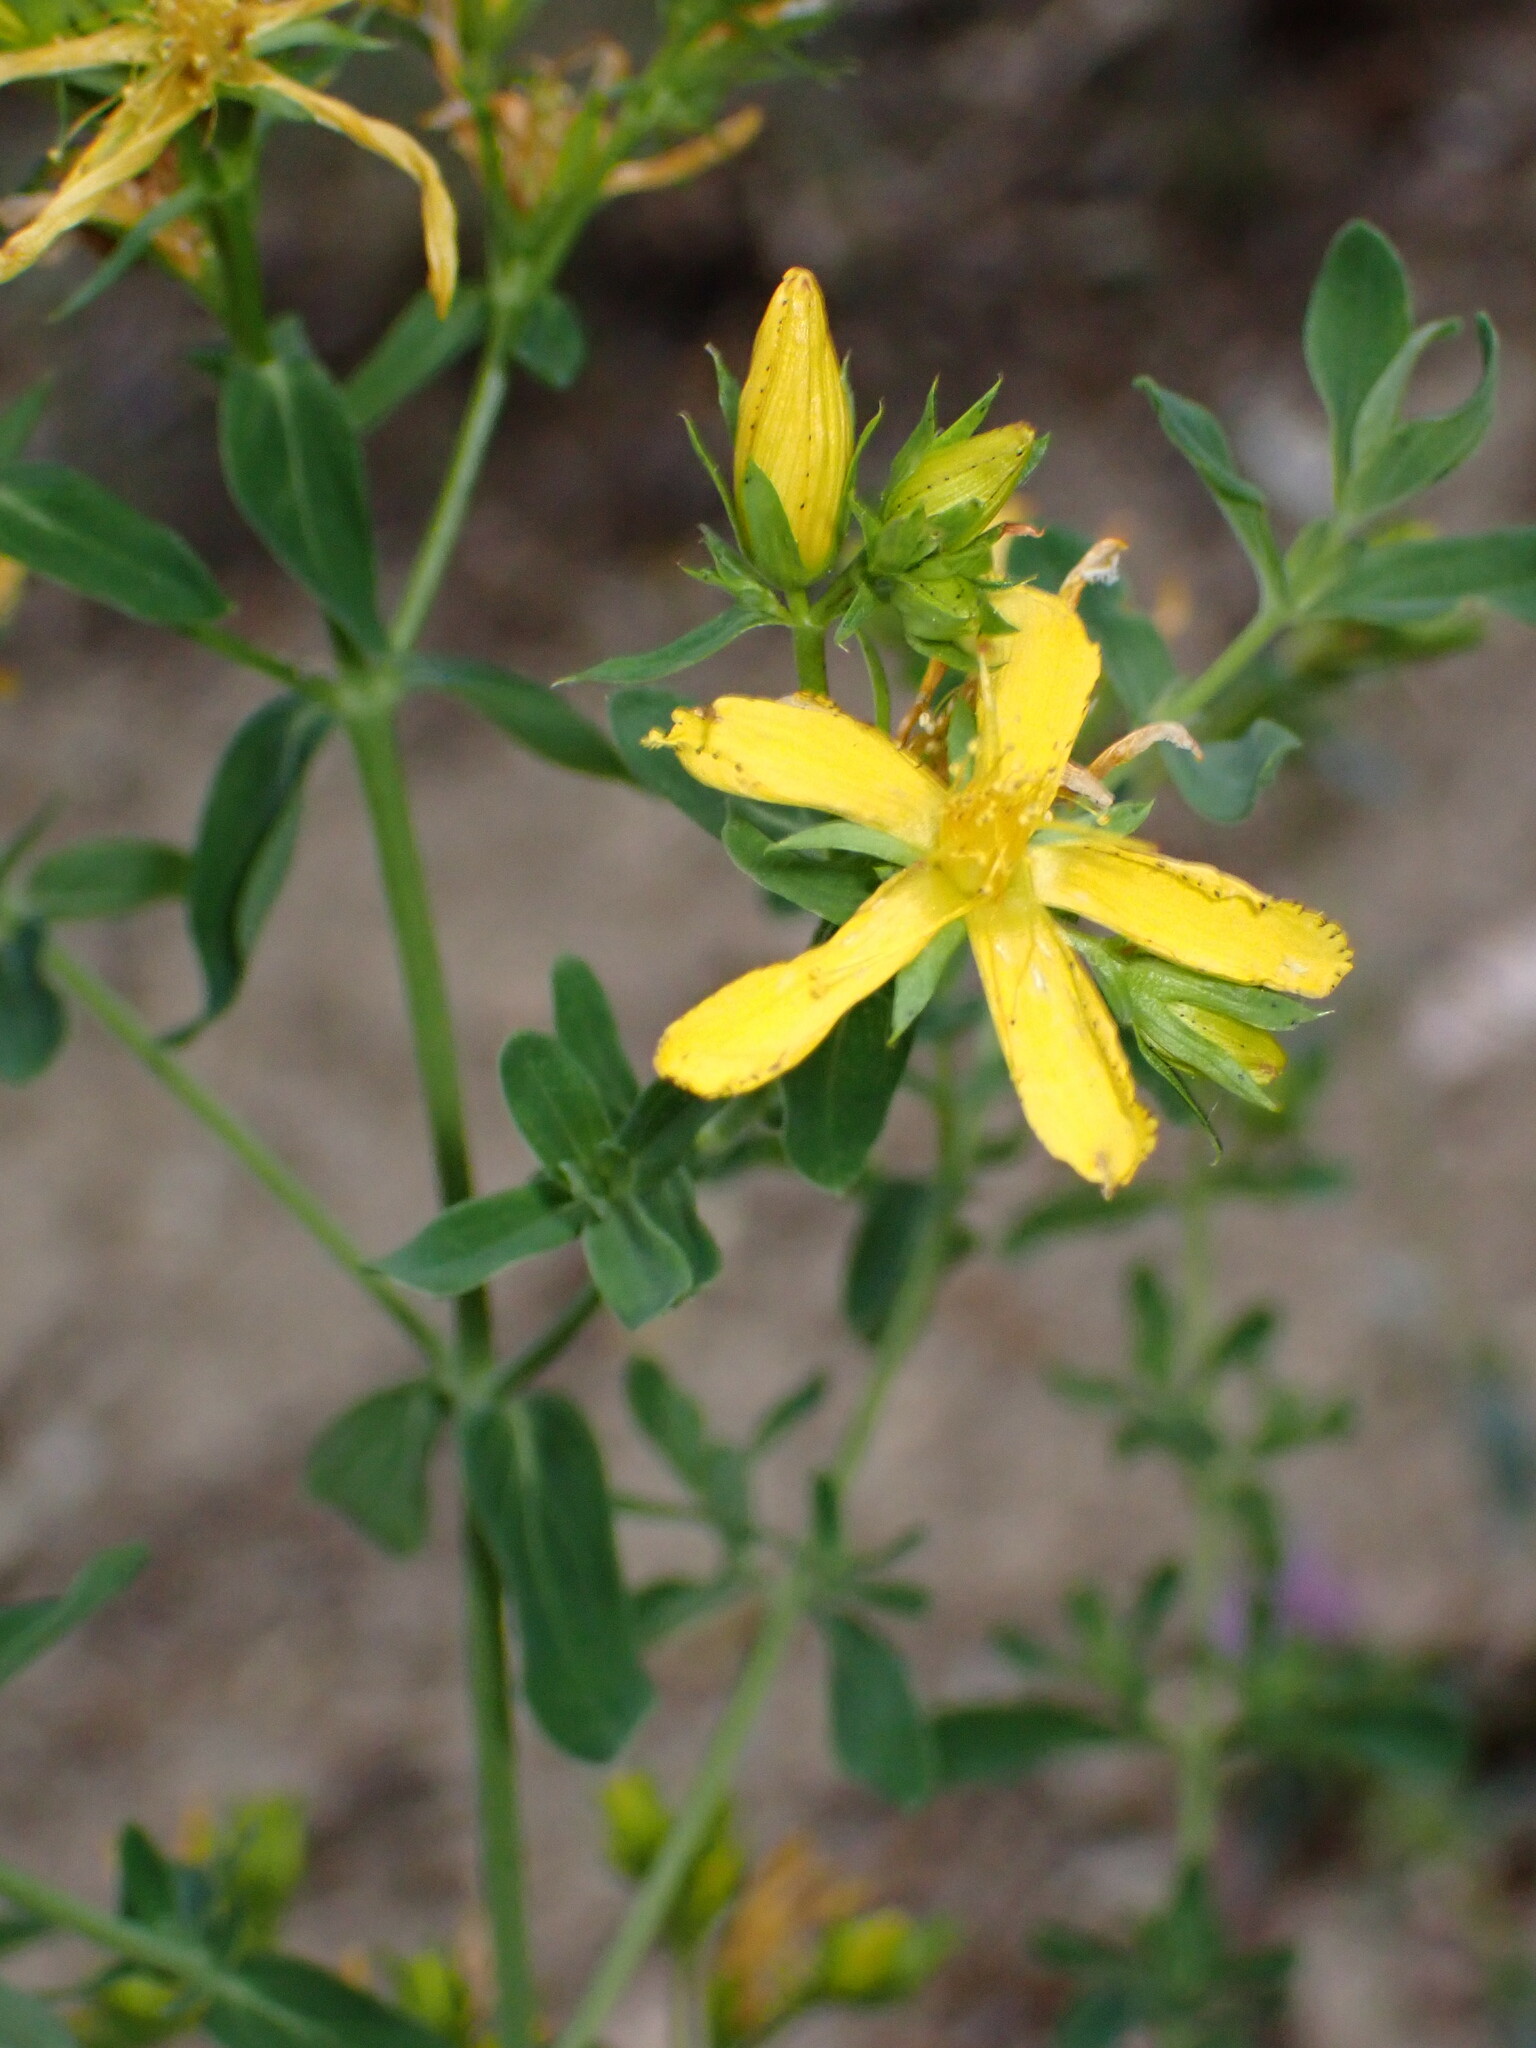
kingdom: Plantae
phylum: Tracheophyta
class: Magnoliopsida
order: Malpighiales
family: Hypericaceae
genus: Hypericum
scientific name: Hypericum perforatum
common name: Common st. johnswort
